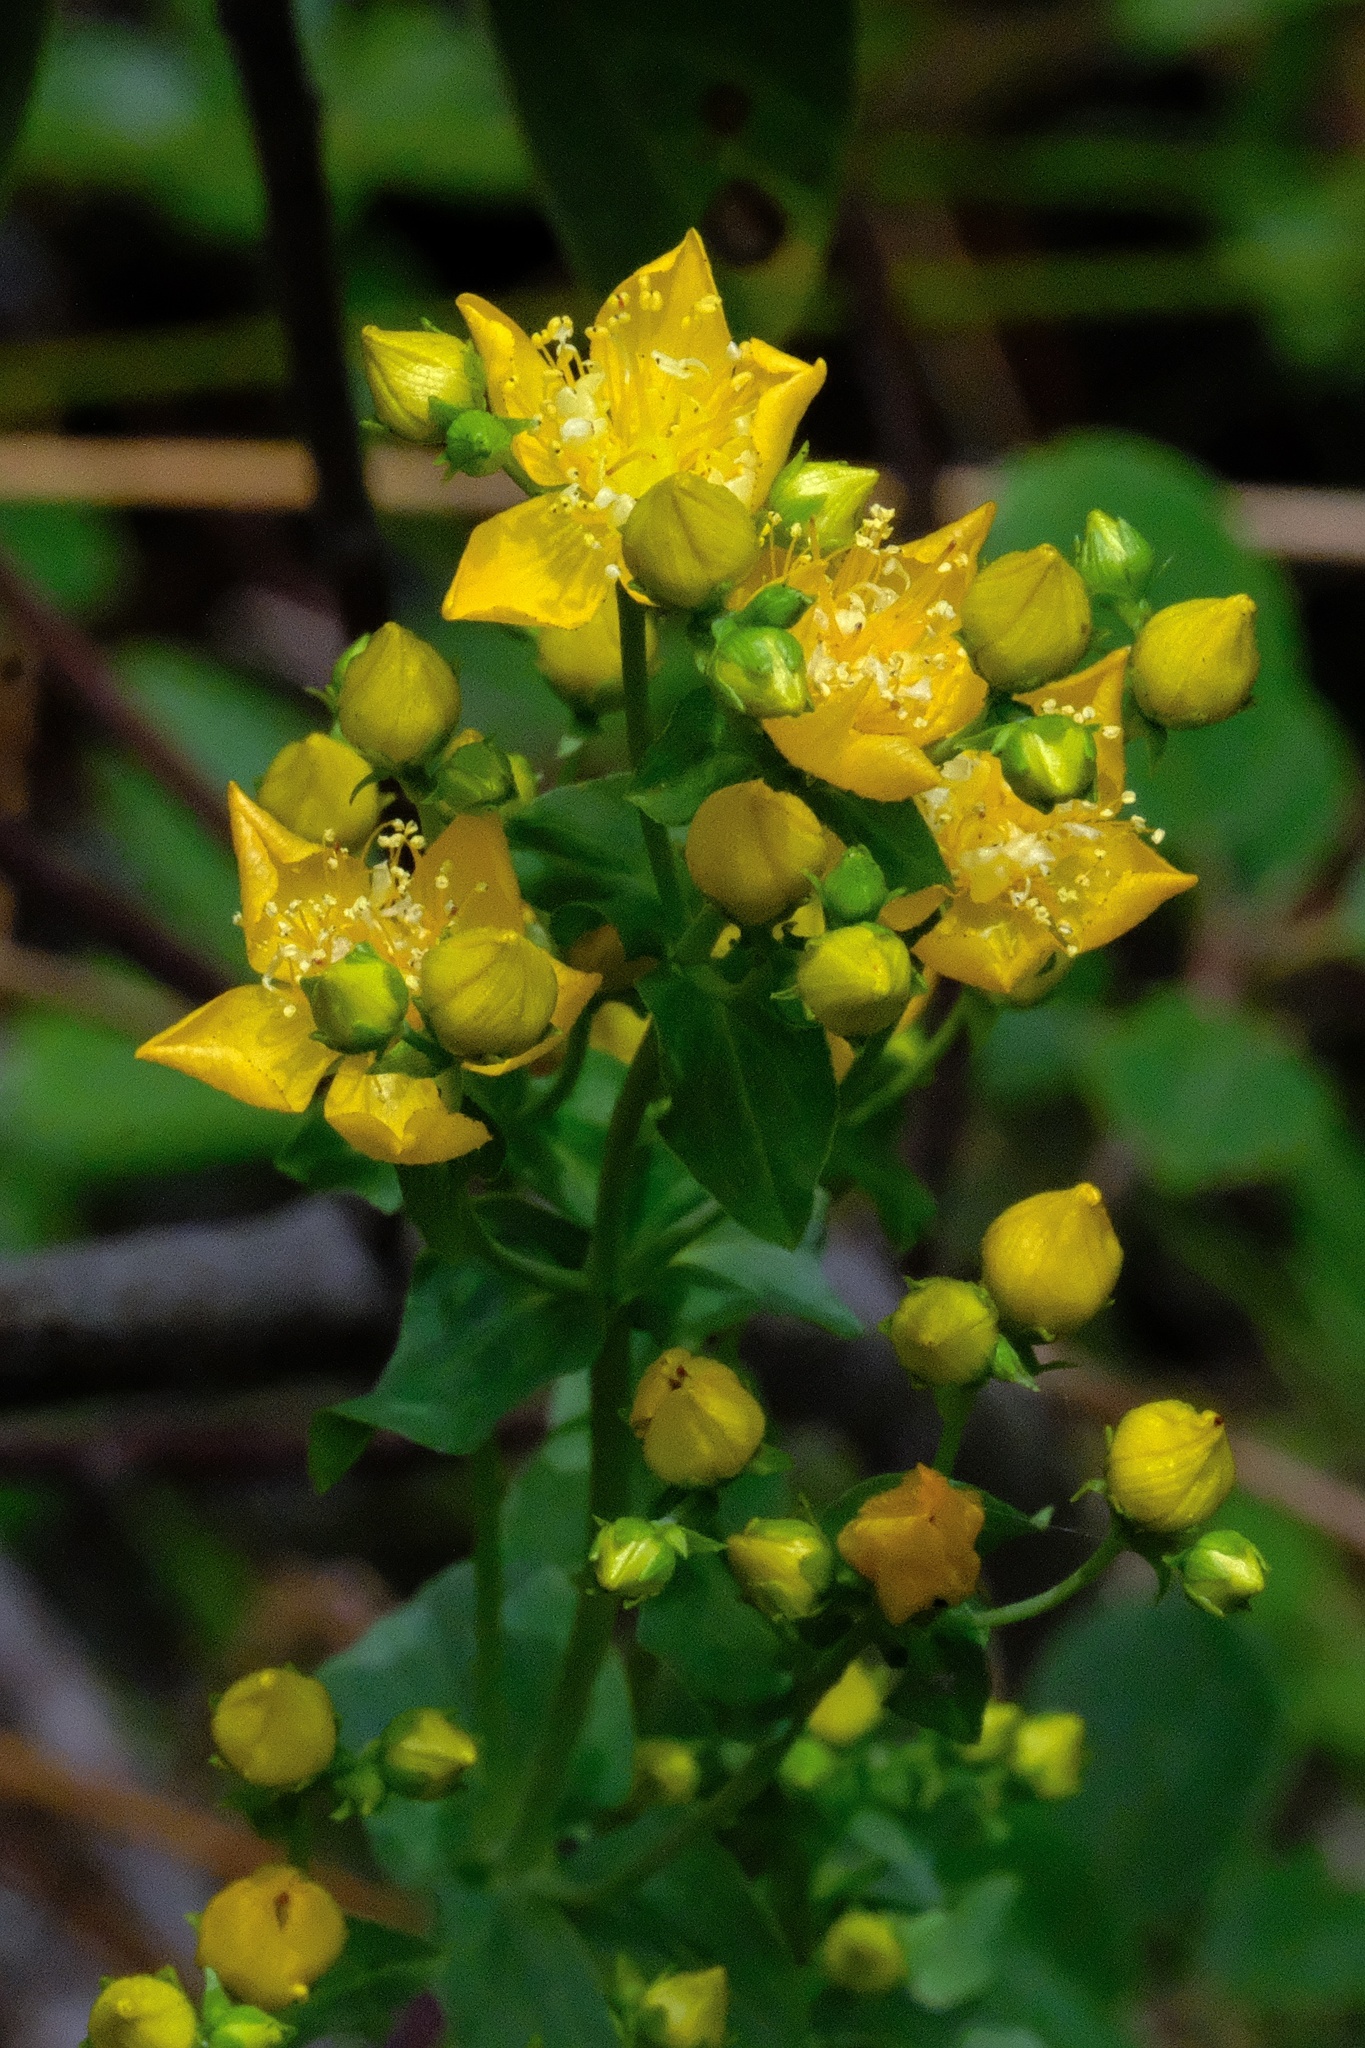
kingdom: Plantae
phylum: Tracheophyta
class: Magnoliopsida
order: Malpighiales
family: Hypericaceae
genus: Hypericum
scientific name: Hypericum scouleri
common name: Scouler's st. john's-wort
